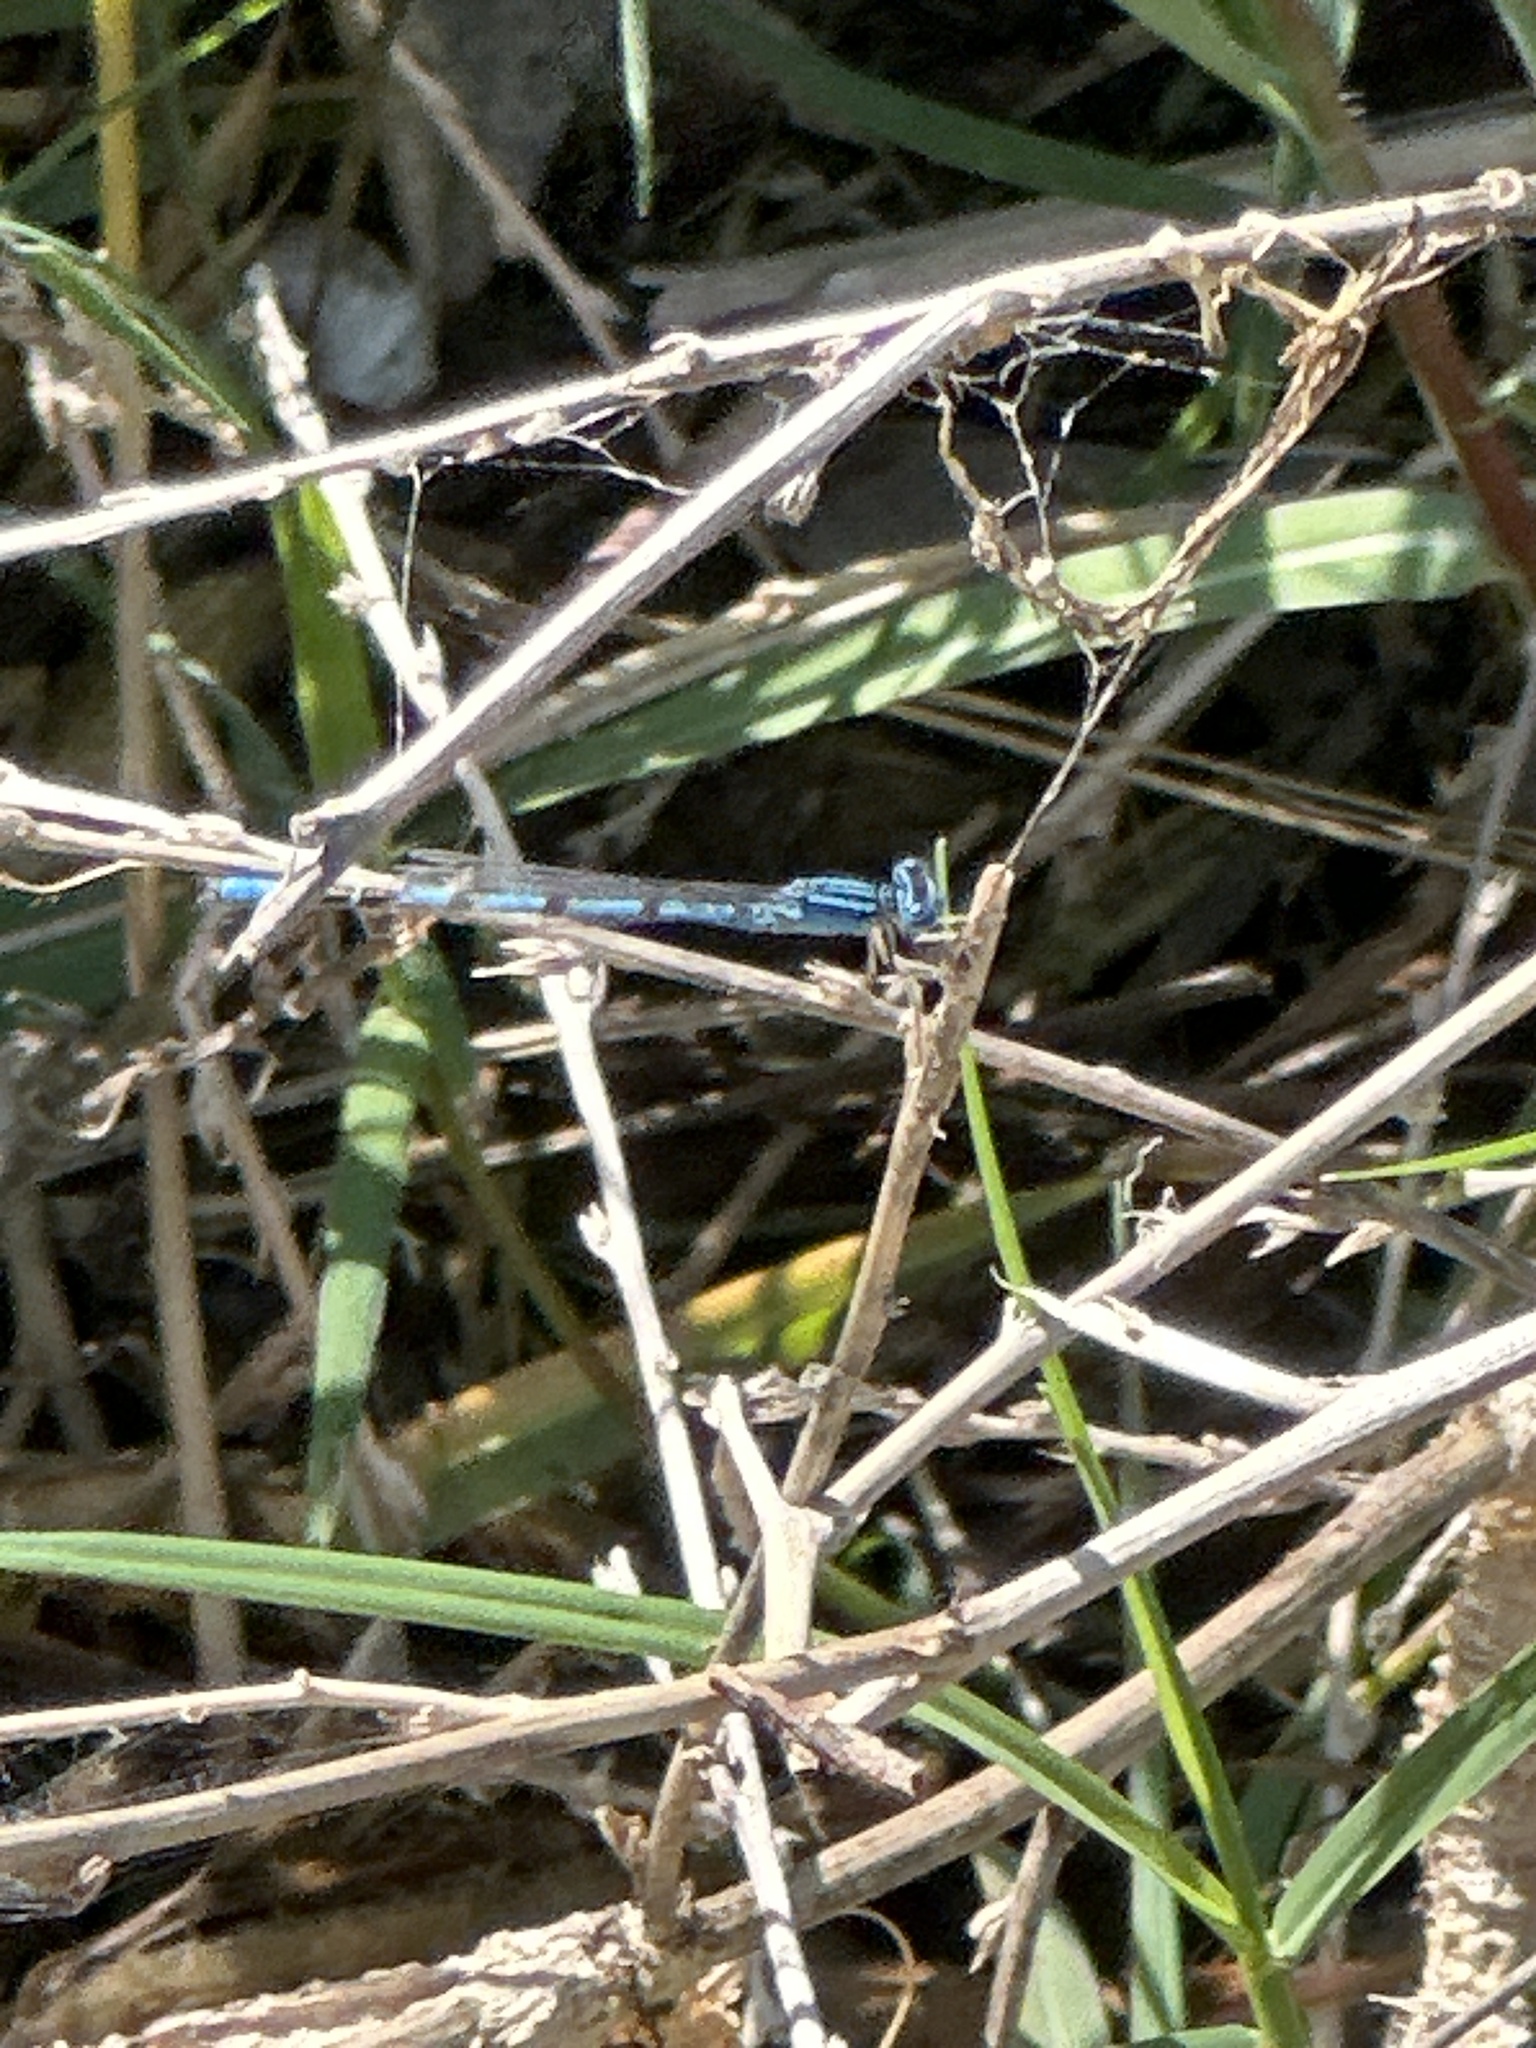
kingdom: Animalia
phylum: Arthropoda
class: Insecta
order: Odonata
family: Coenagrionidae
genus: Enallagma
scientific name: Enallagma basidens
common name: Double-striped bluet
